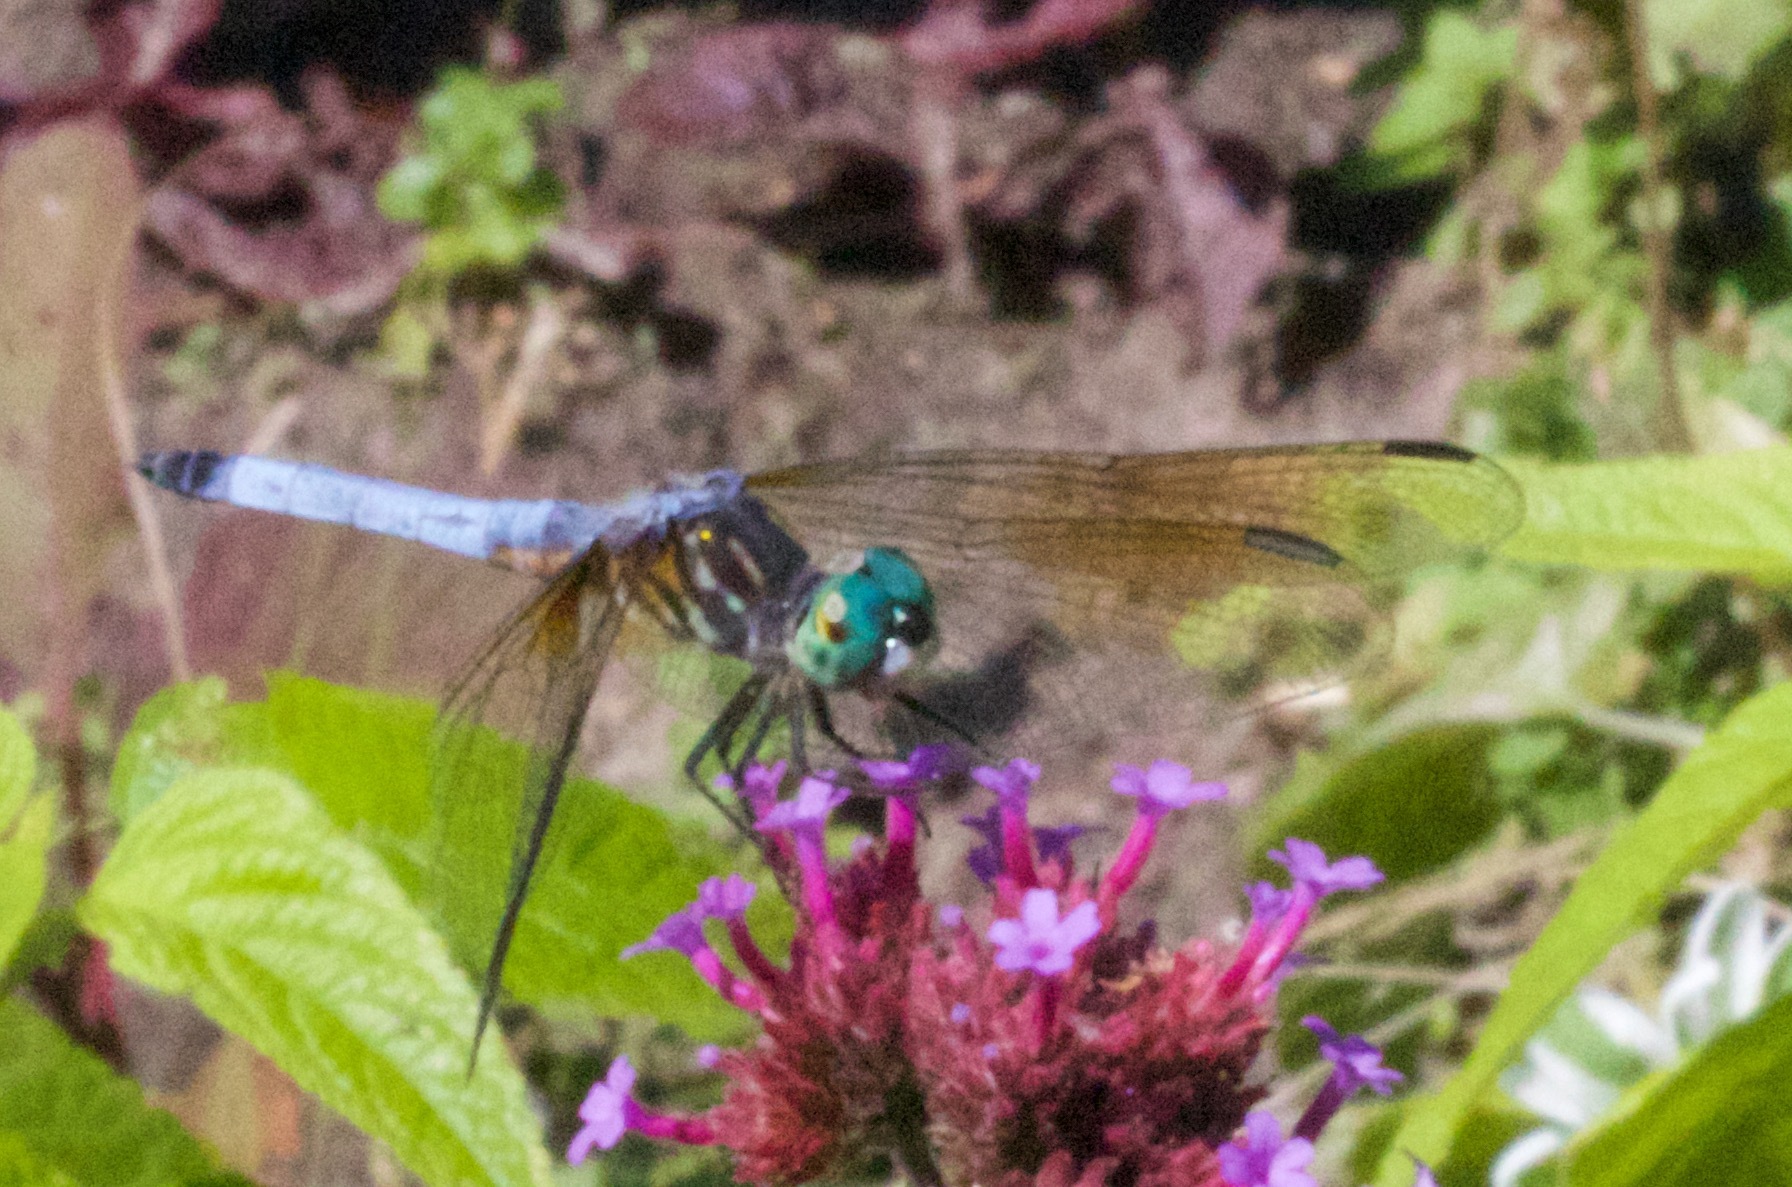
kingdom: Animalia
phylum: Arthropoda
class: Insecta
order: Odonata
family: Libellulidae
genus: Pachydiplax
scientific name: Pachydiplax longipennis
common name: Blue dasher
